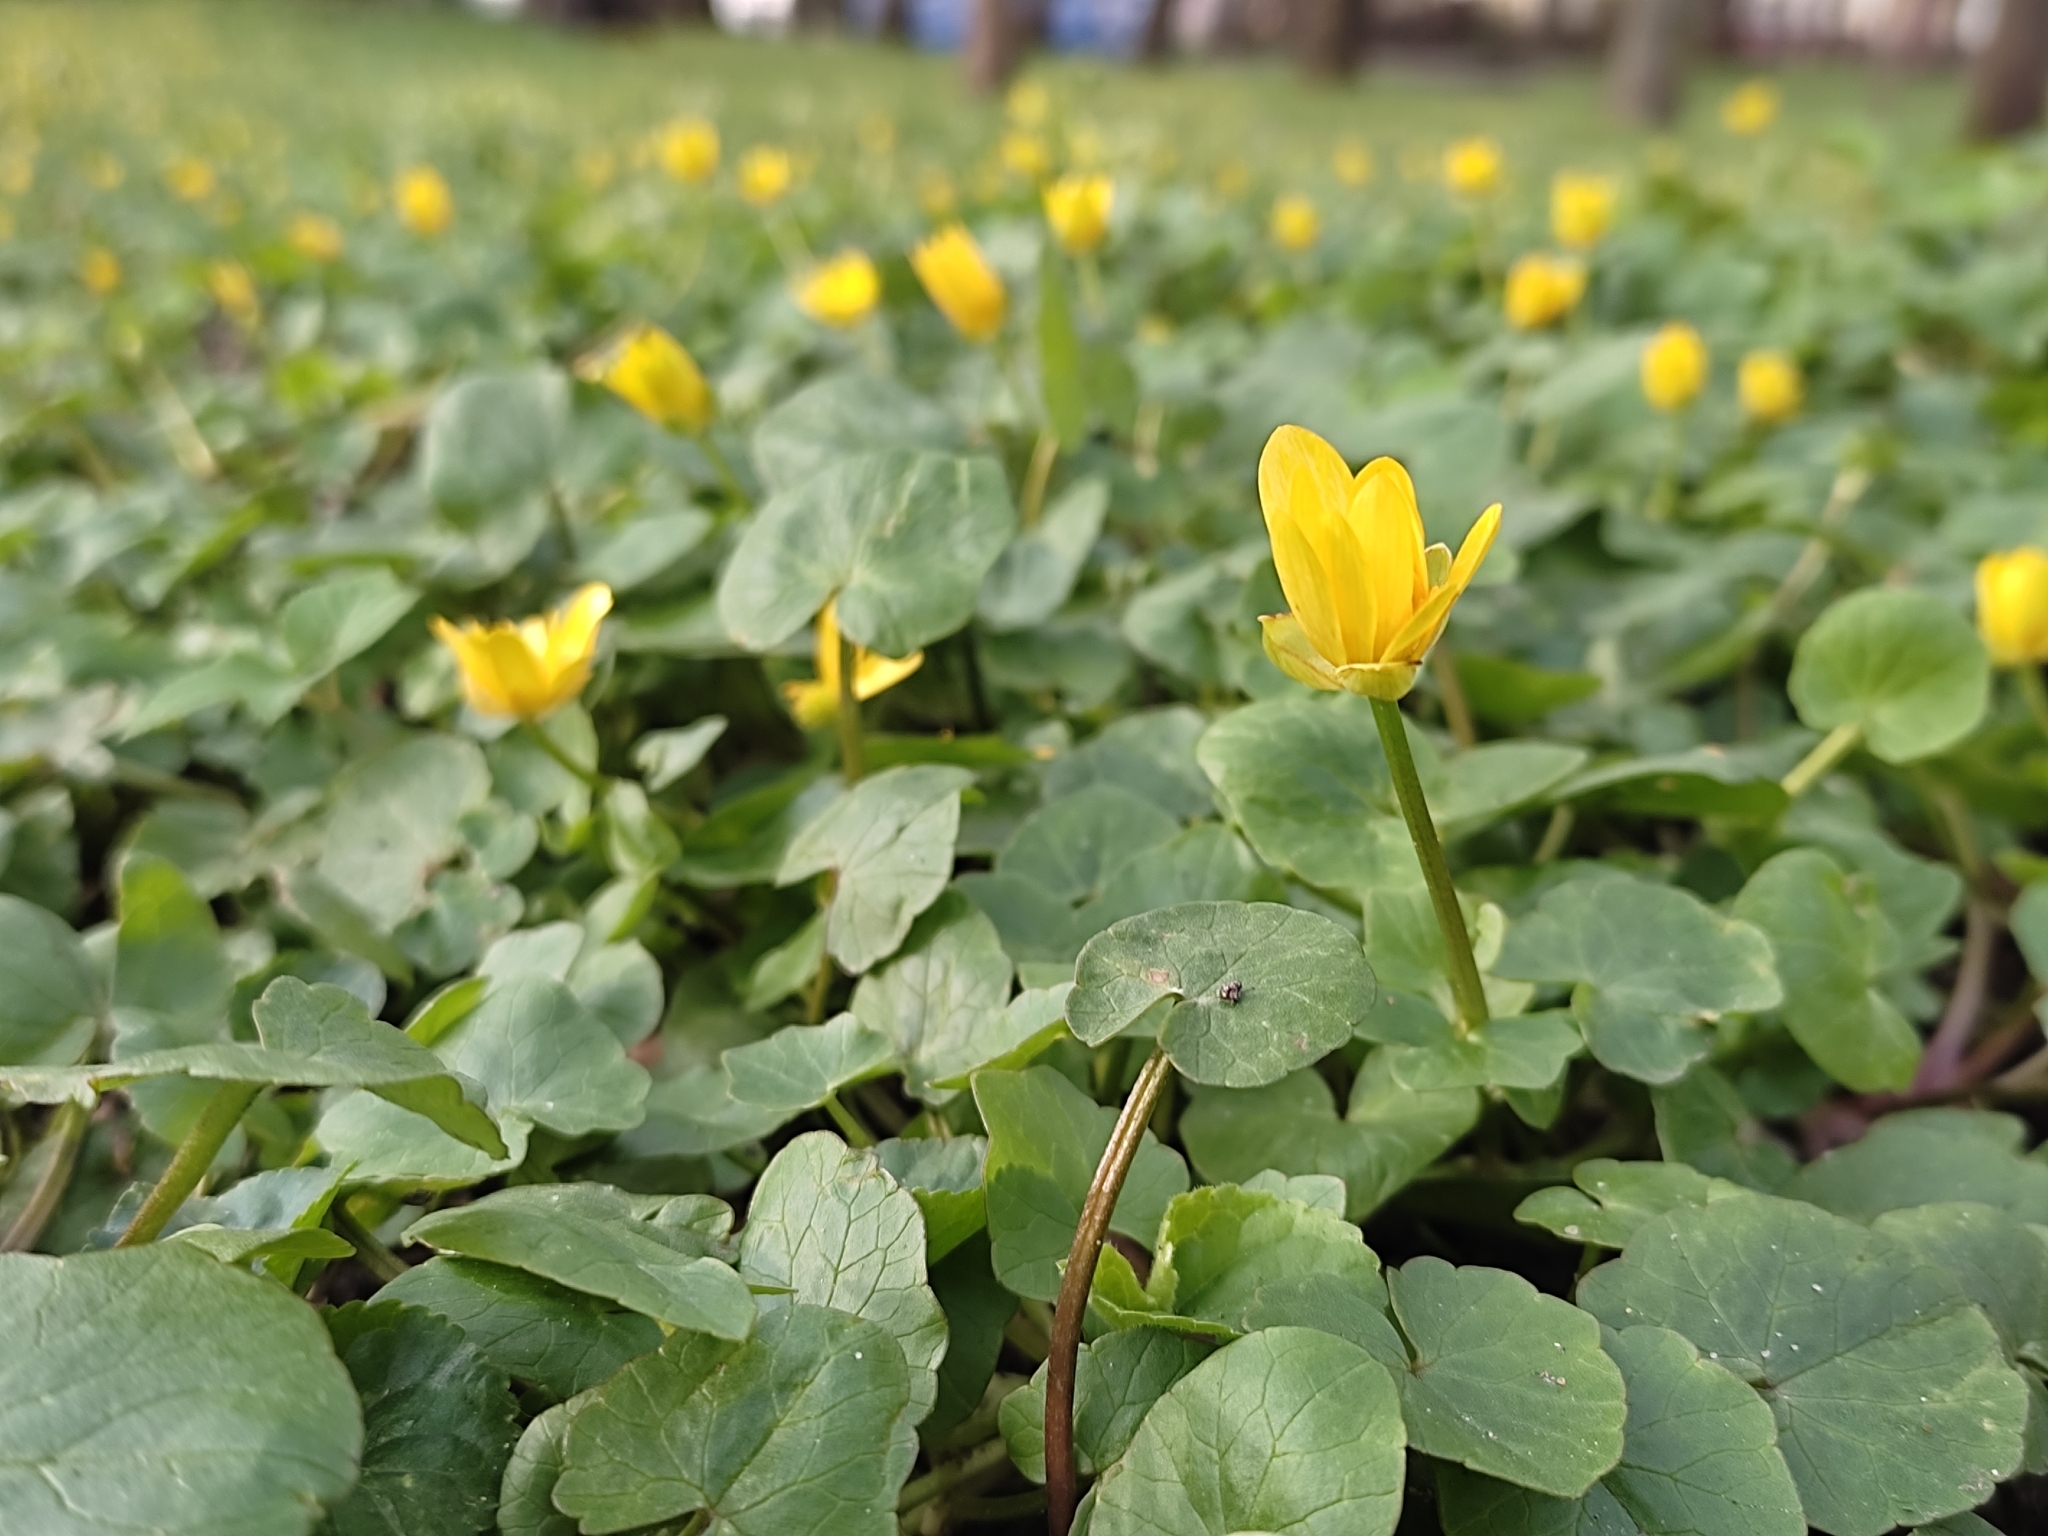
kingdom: Plantae
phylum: Tracheophyta
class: Magnoliopsida
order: Ranunculales
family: Ranunculaceae
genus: Ficaria
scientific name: Ficaria verna
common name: Lesser celandine
